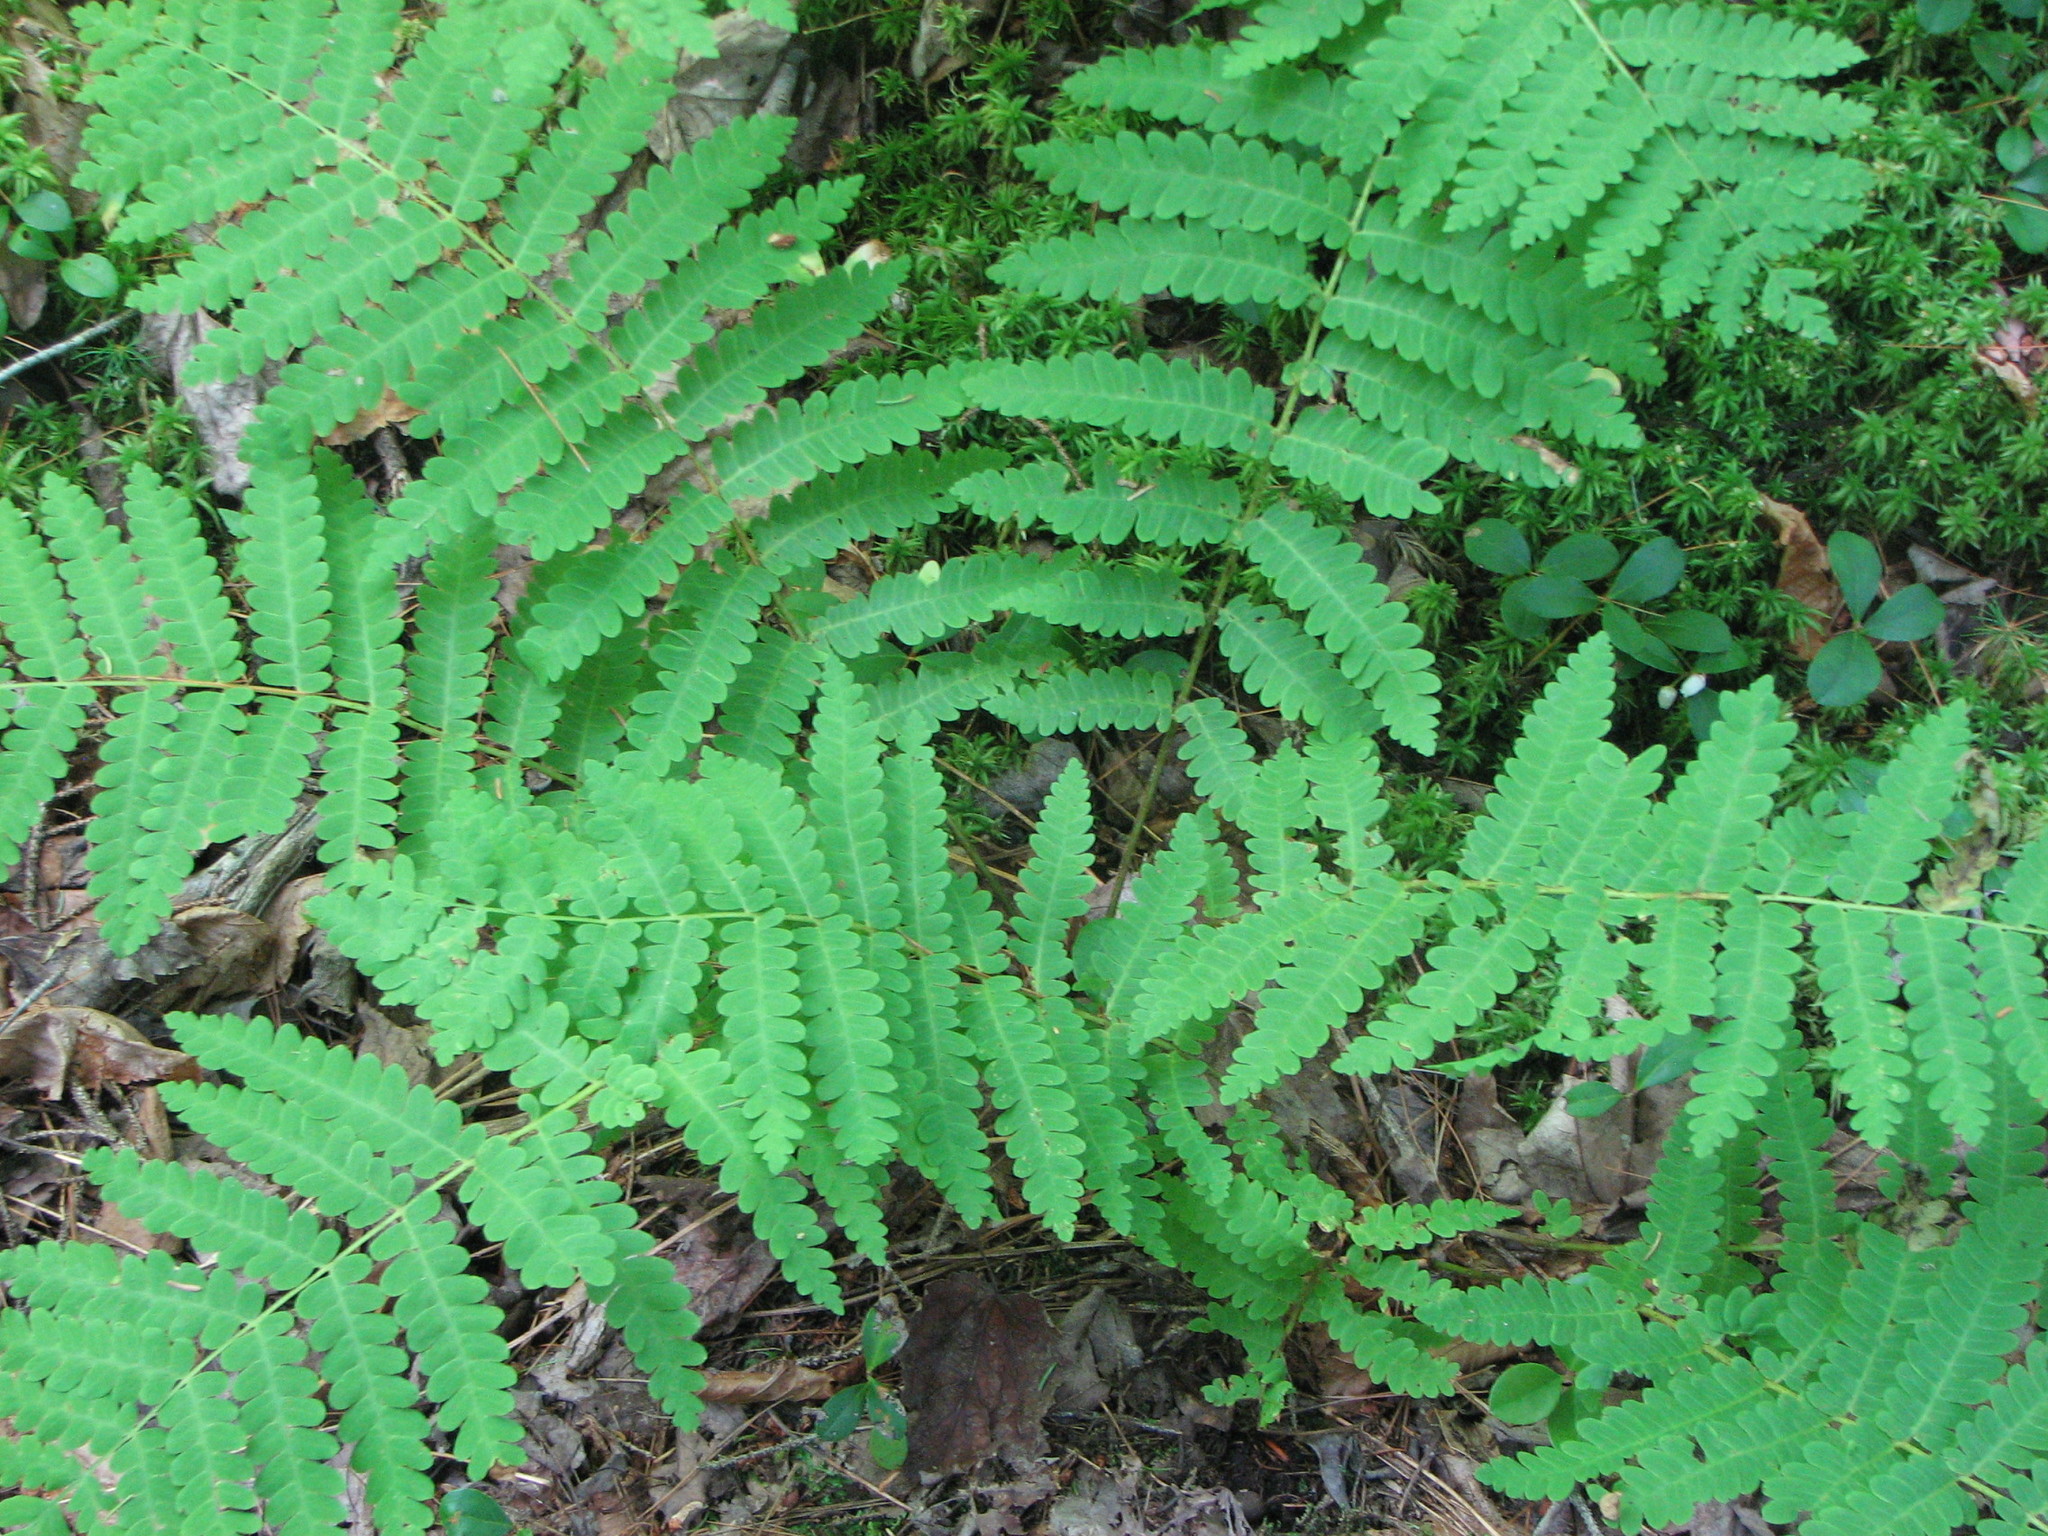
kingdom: Plantae
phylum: Tracheophyta
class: Polypodiopsida
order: Osmundales
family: Osmundaceae
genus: Claytosmunda
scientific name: Claytosmunda claytoniana
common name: Clayton's fern
